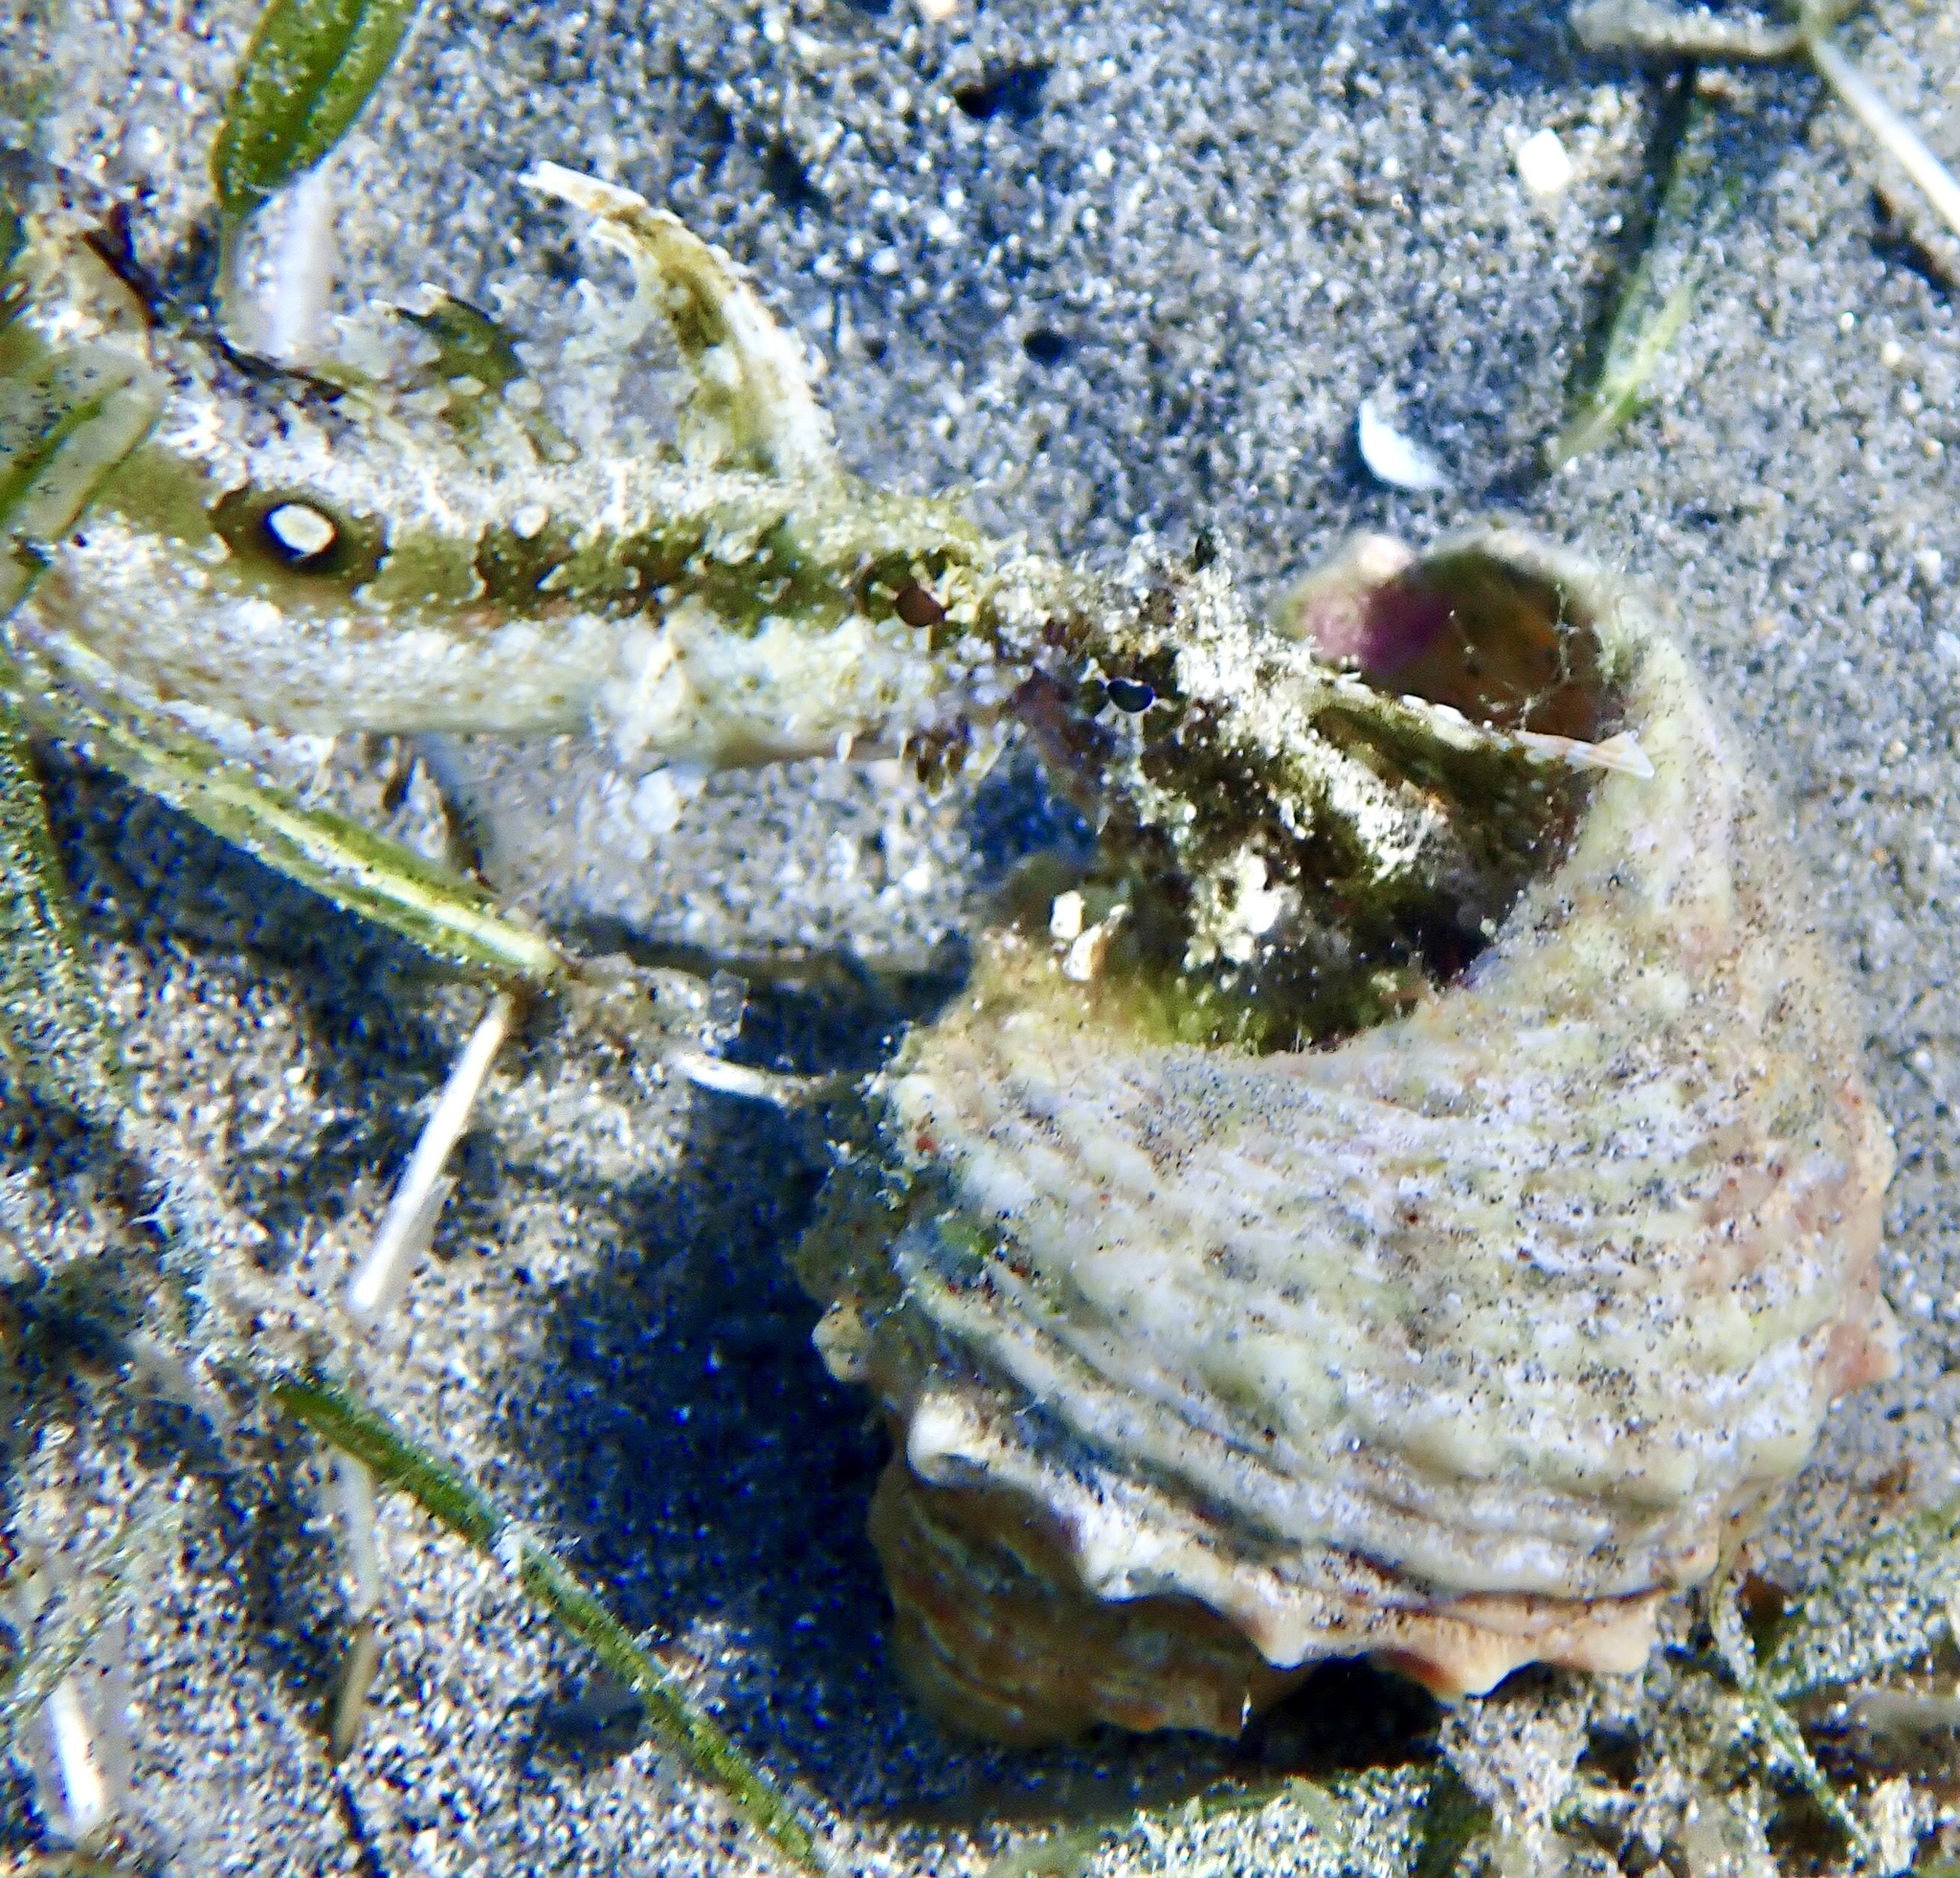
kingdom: Animalia
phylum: Chordata
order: Perciformes
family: Blenniidae
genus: Petroscirtes
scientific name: Petroscirtes mitratus
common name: Floral blenny
